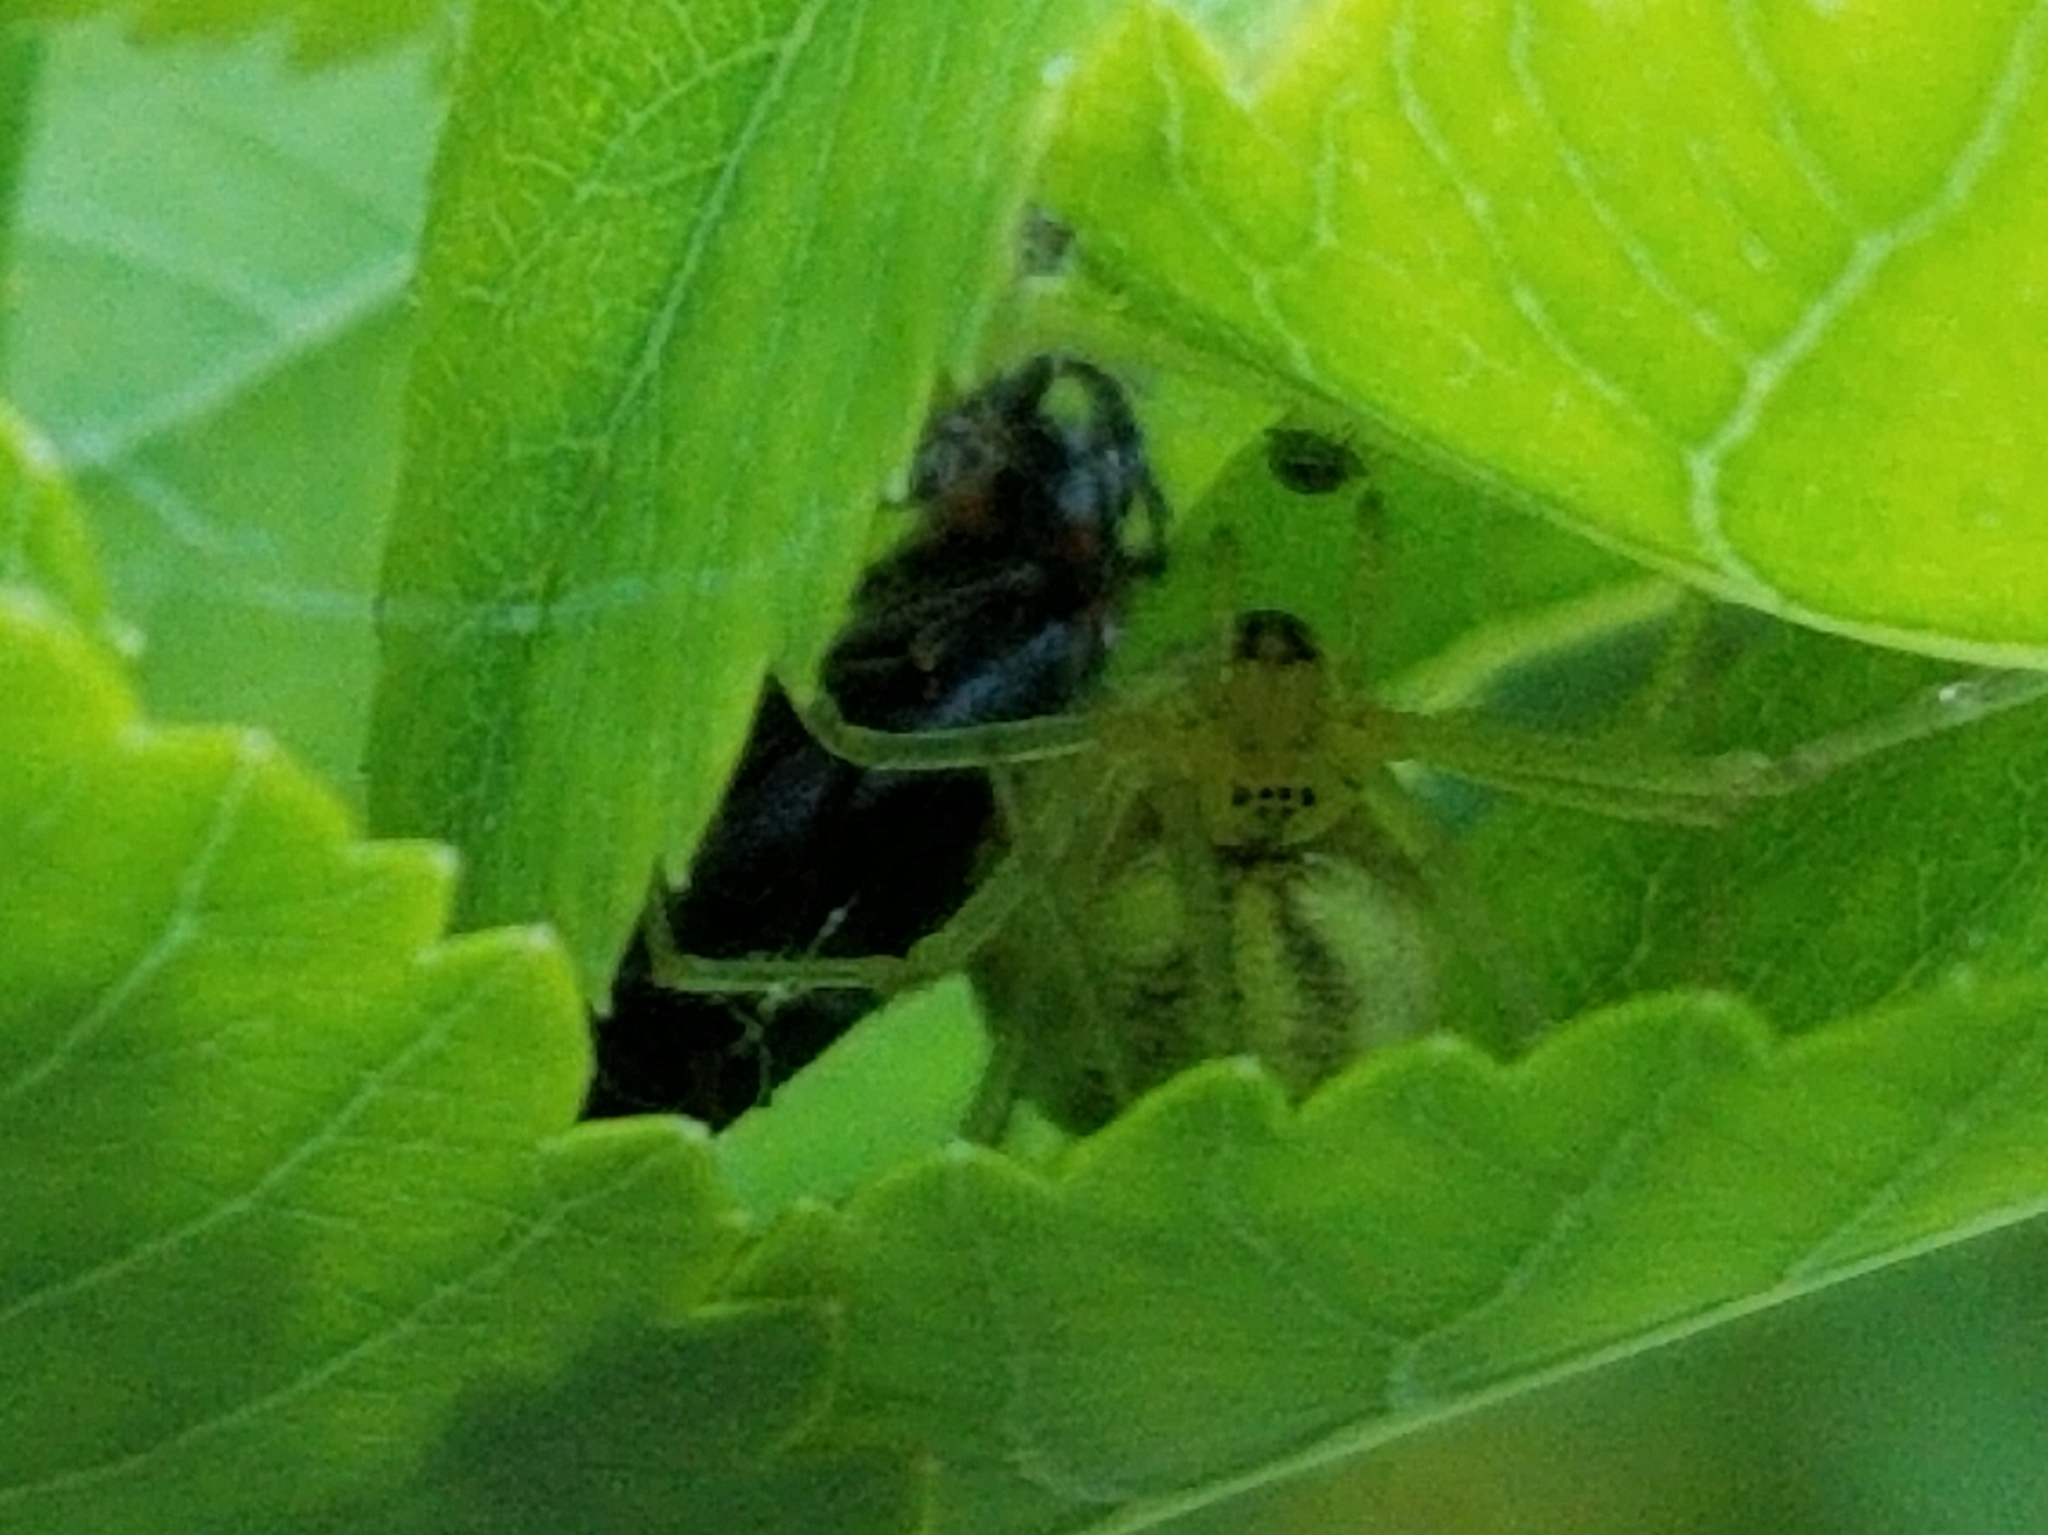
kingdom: Animalia
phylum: Arthropoda
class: Arachnida
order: Araneae
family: Theridiidae
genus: Enoplognatha
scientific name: Enoplognatha ovata
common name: Common candy-striped spider
